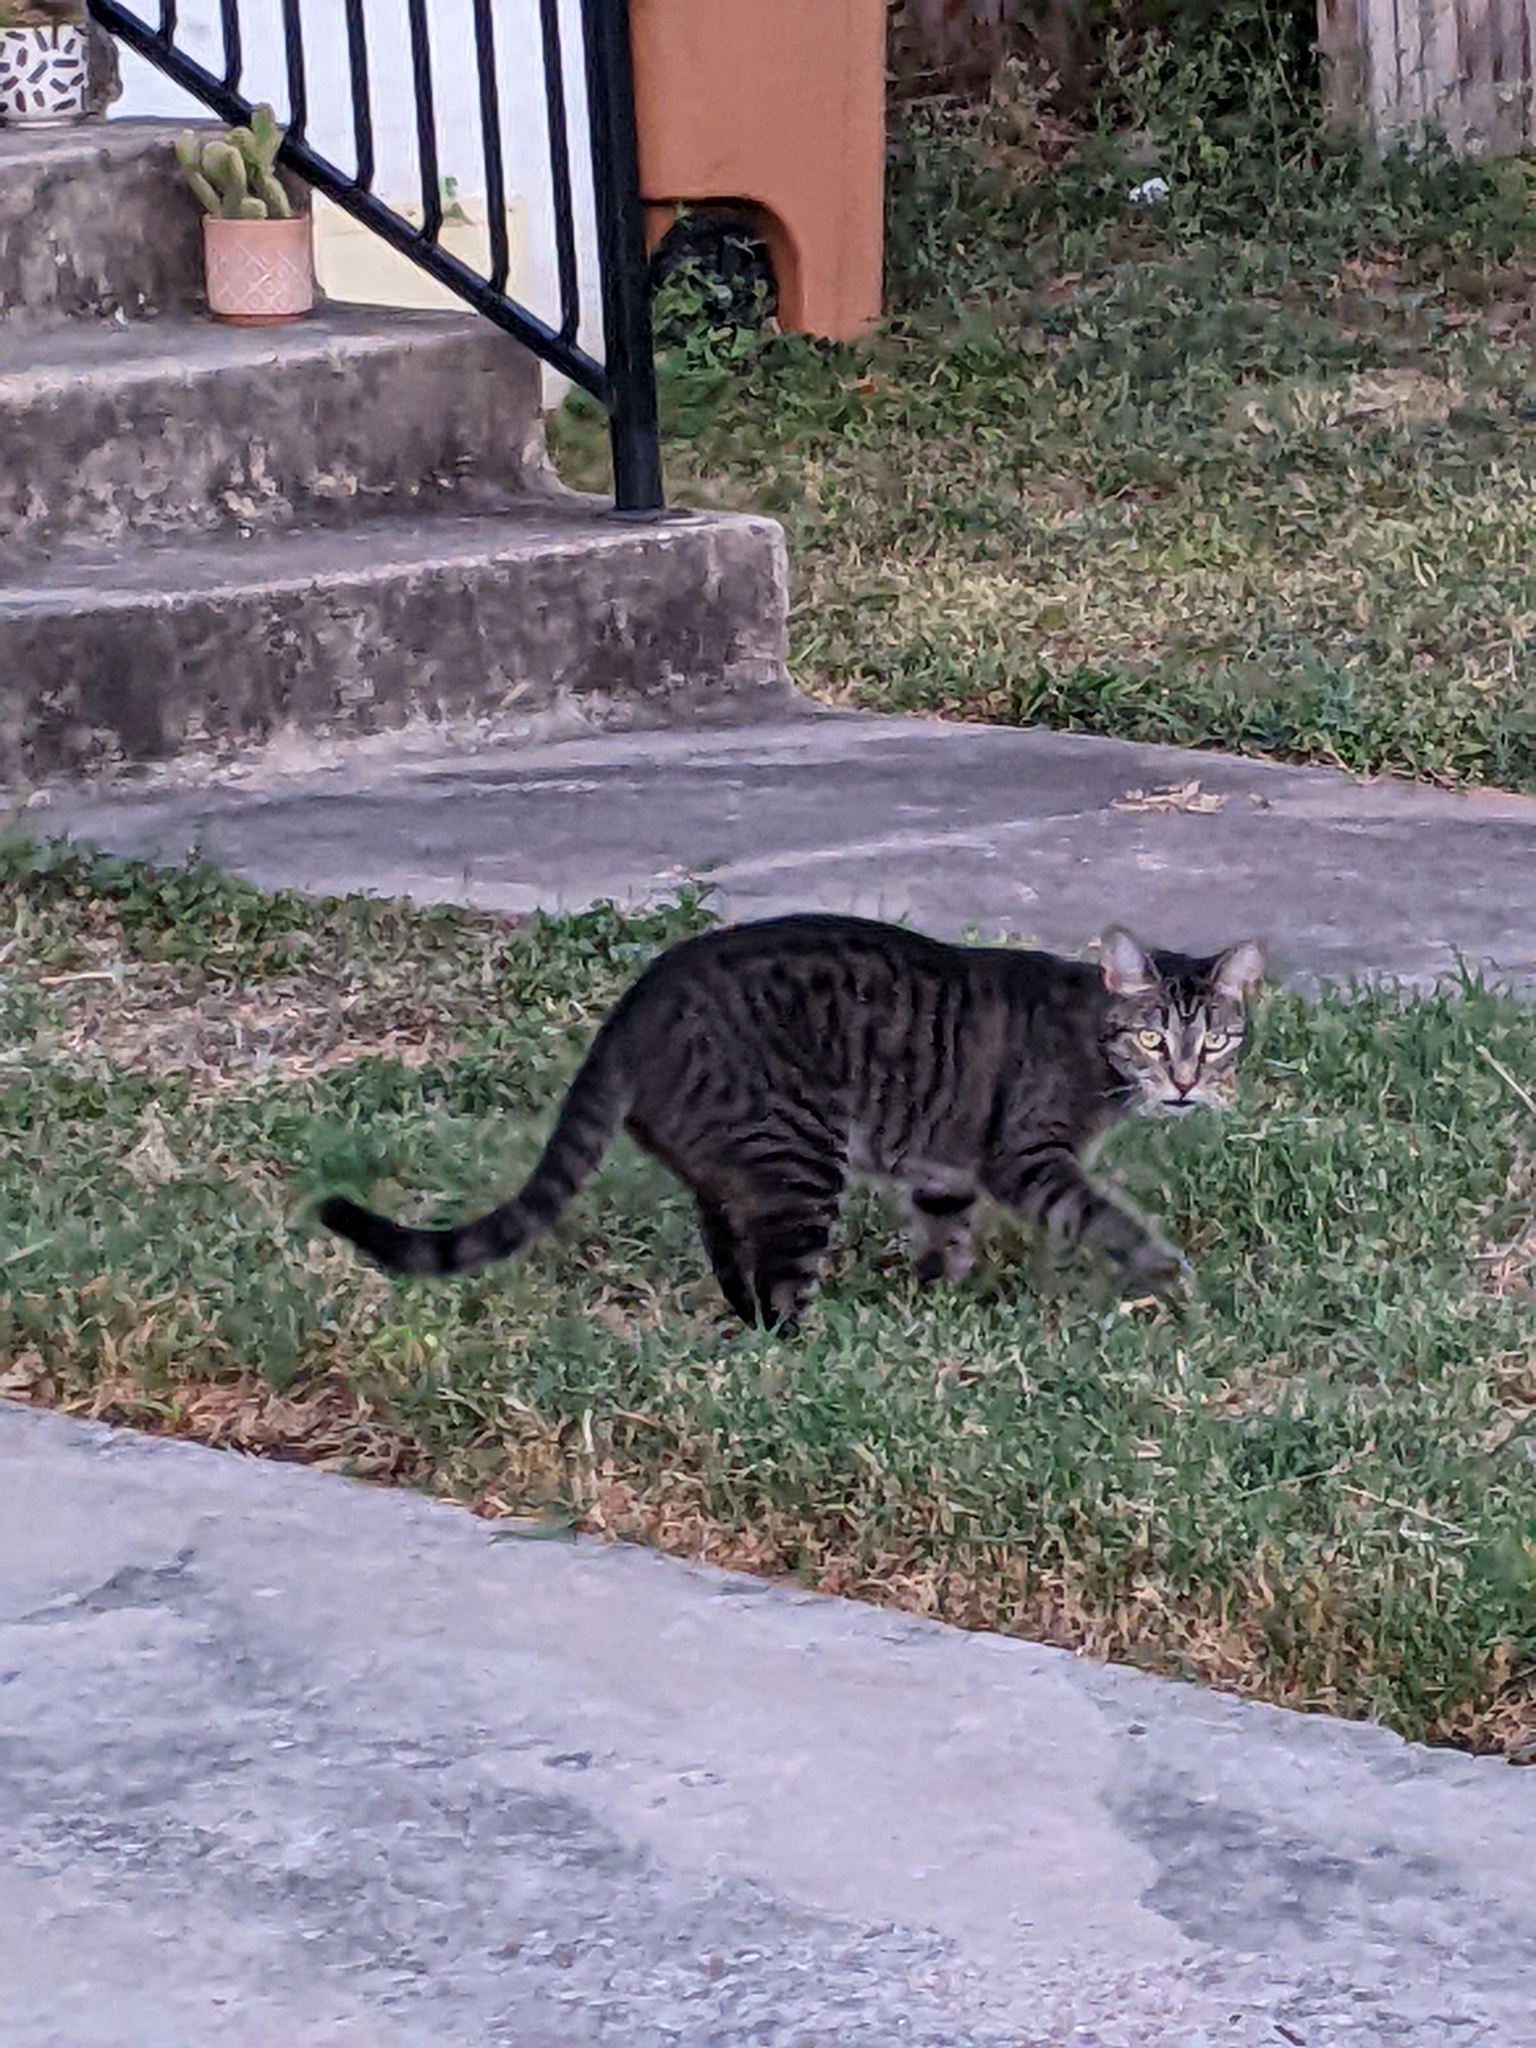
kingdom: Animalia
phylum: Chordata
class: Mammalia
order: Carnivora
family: Felidae
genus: Felis
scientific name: Felis catus
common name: Domestic cat
